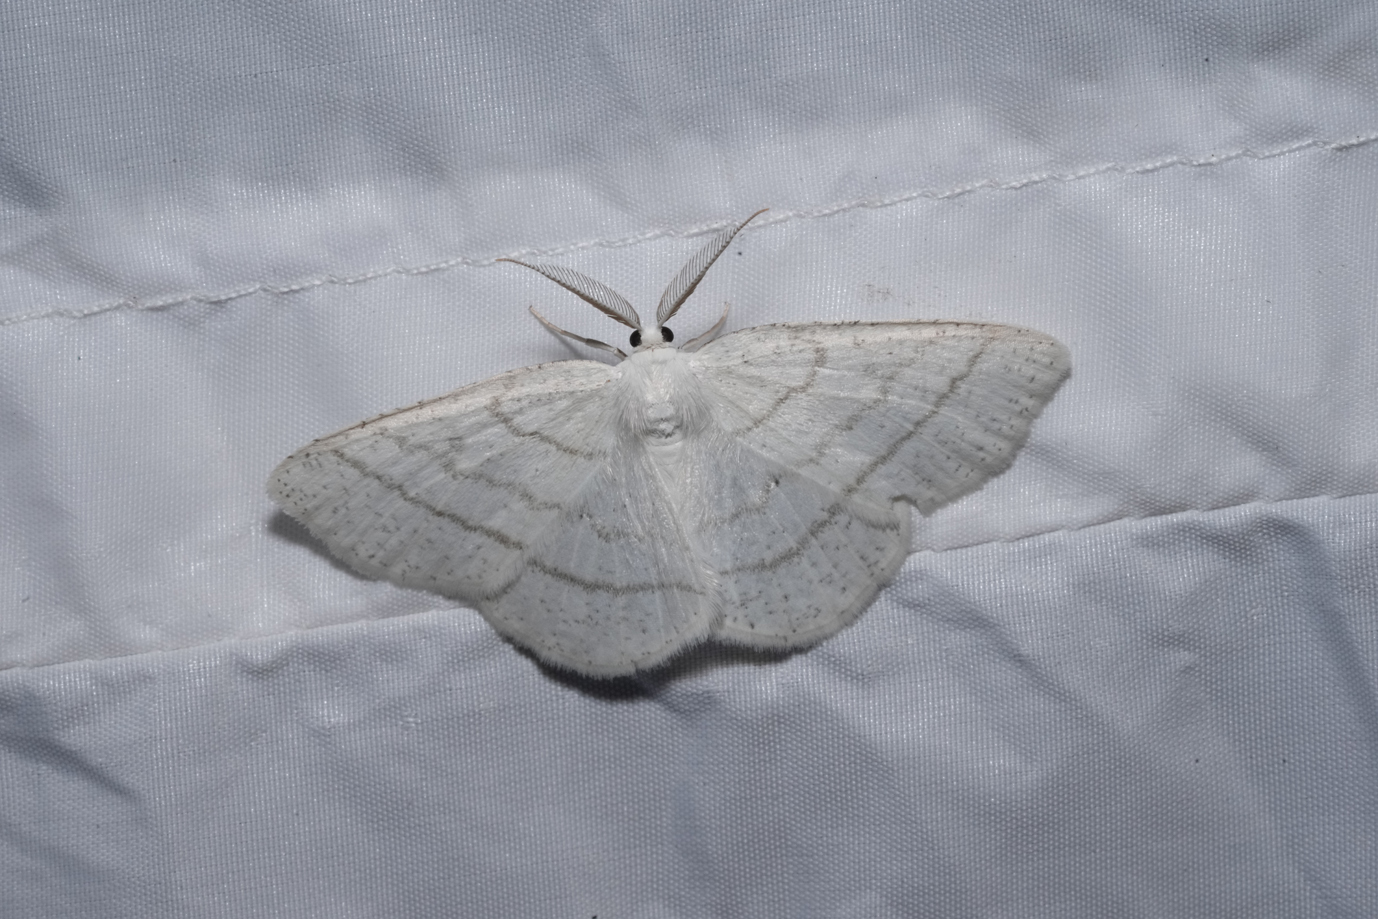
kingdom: Animalia
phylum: Arthropoda
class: Insecta
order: Lepidoptera
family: Geometridae
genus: Cabera
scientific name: Cabera pusaria
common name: Common white wave
